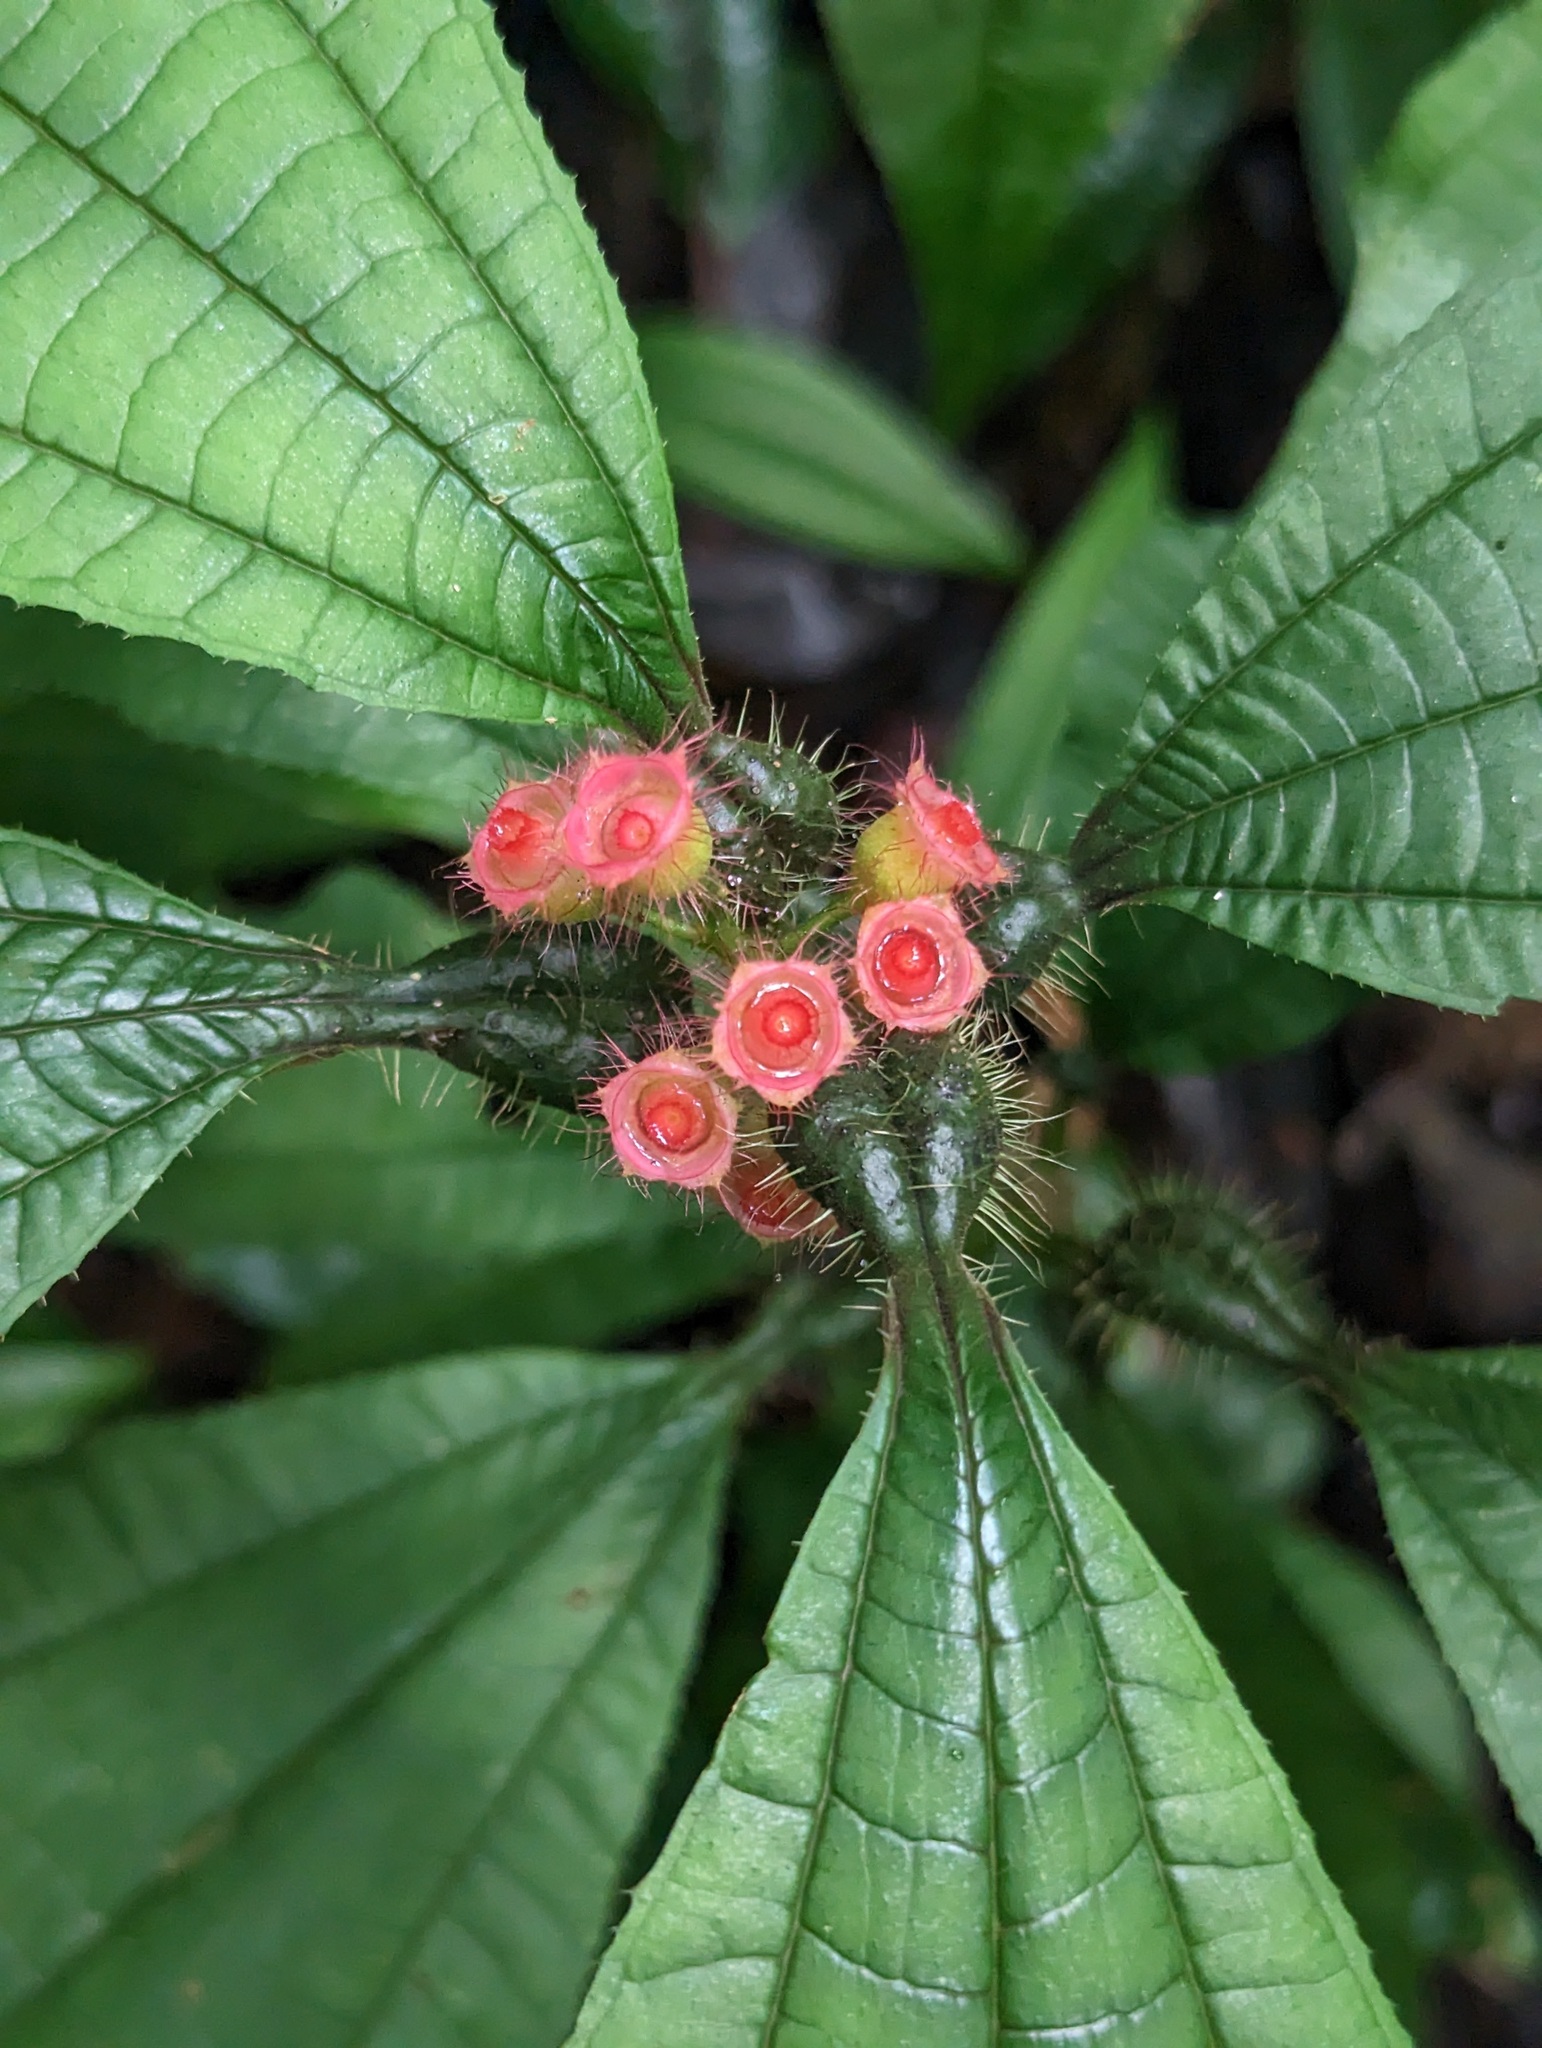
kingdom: Plantae
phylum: Tracheophyta
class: Magnoliopsida
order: Myrtales
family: Melastomataceae
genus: Miconia
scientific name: Miconia bullifera
